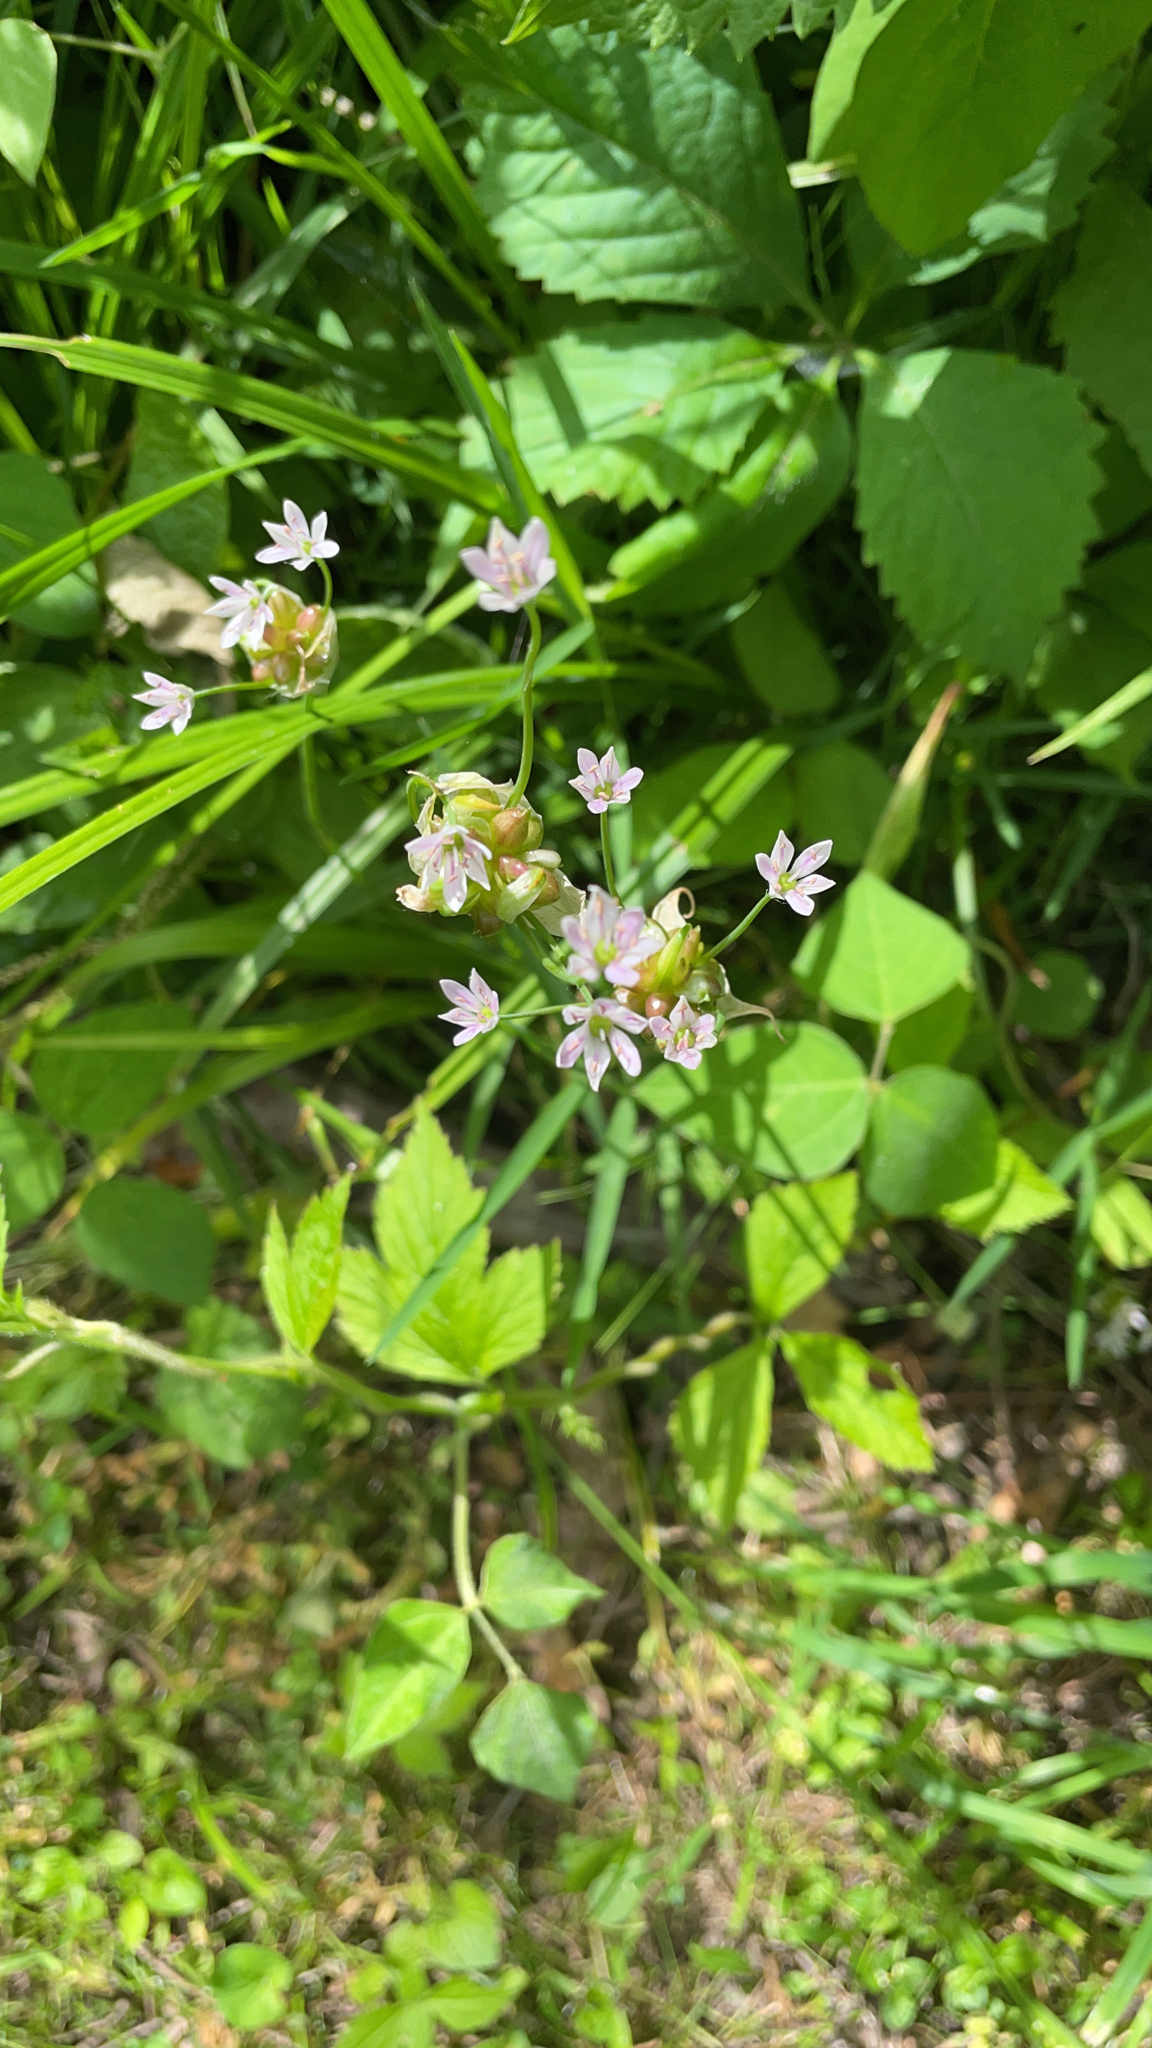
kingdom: Plantae
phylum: Tracheophyta
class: Liliopsida
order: Asparagales
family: Amaryllidaceae
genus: Allium
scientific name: Allium canadense
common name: Meadow garlic
